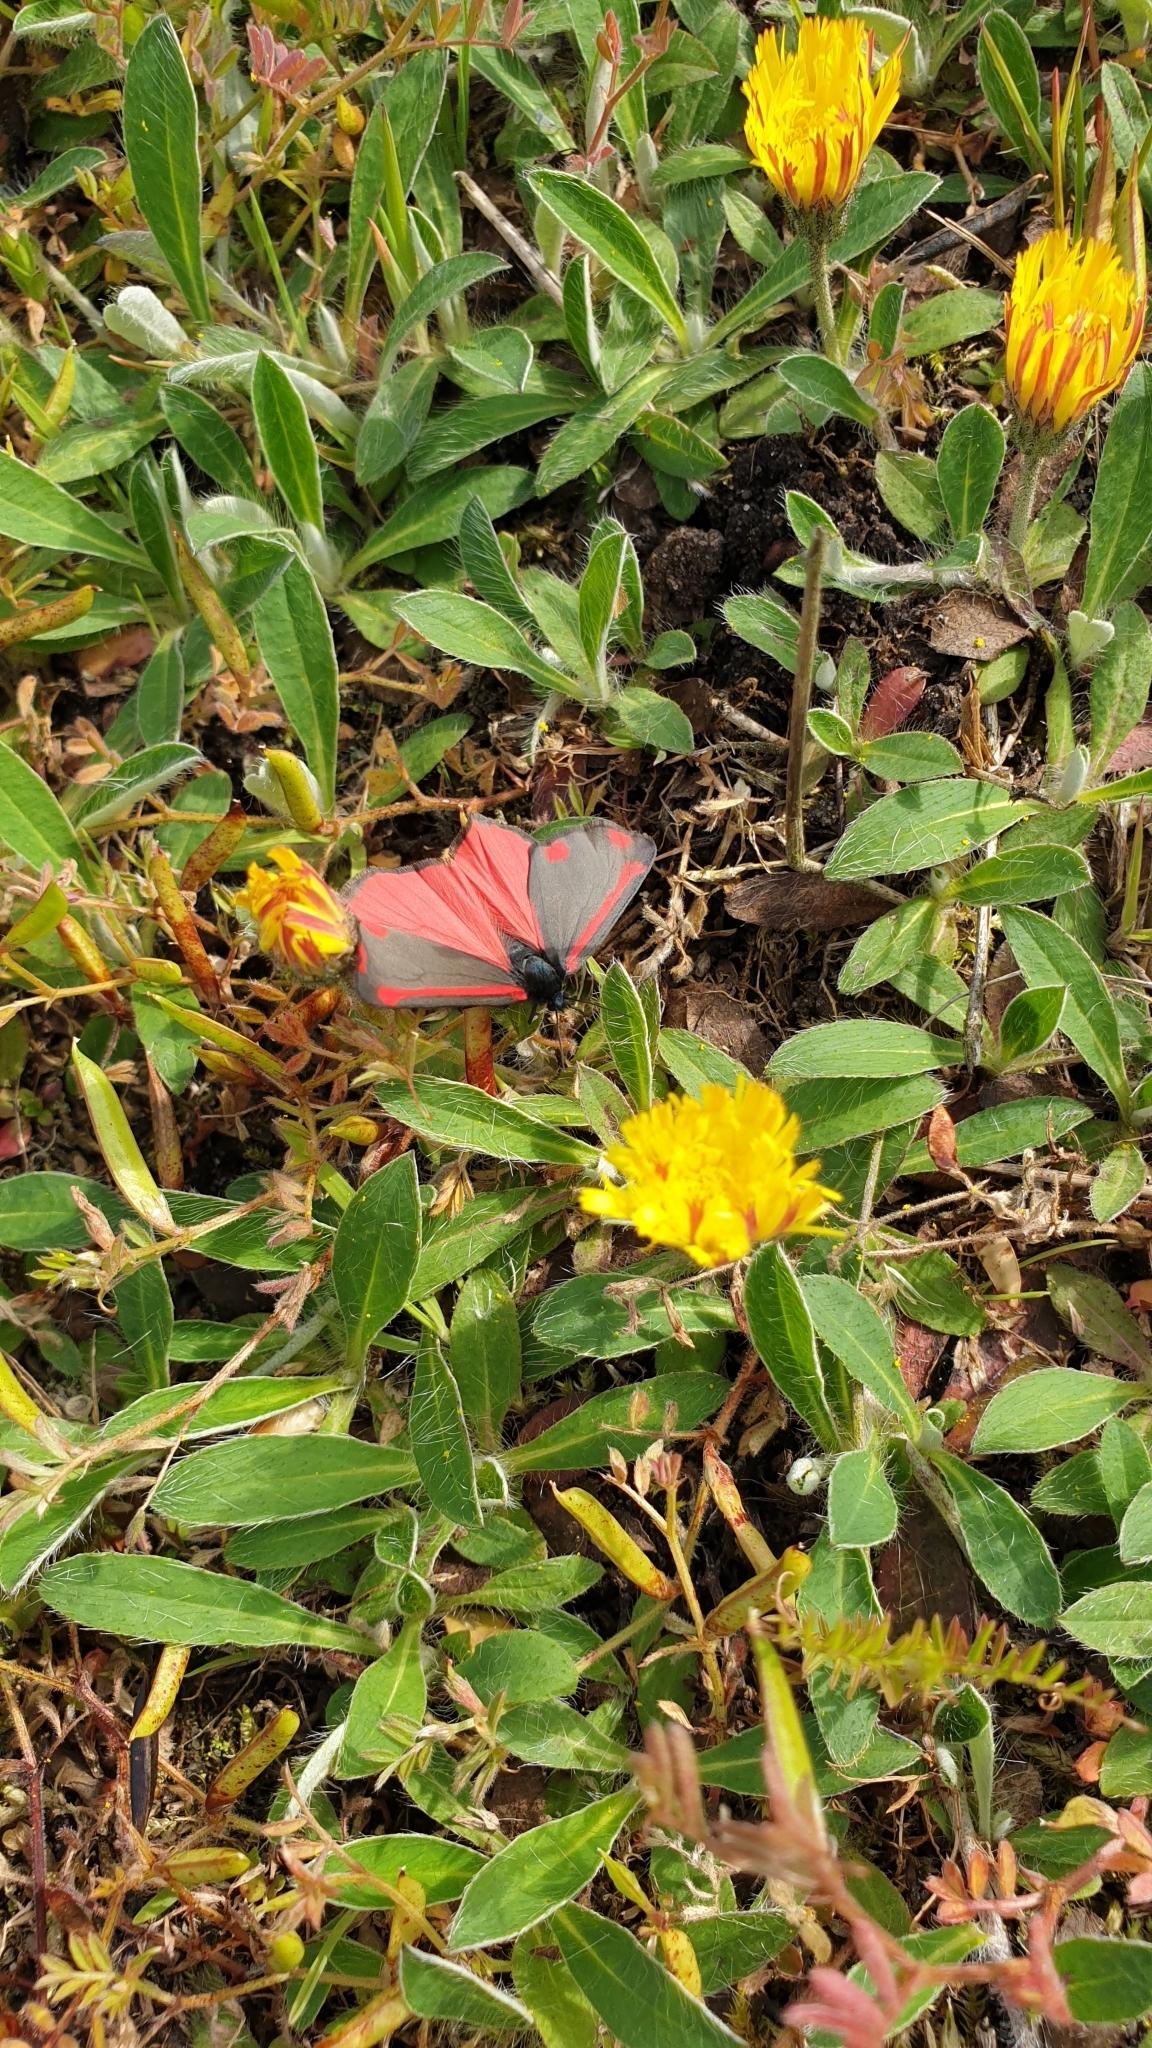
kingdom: Animalia
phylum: Arthropoda
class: Insecta
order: Lepidoptera
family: Erebidae
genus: Tyria
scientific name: Tyria jacobaeae
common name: Cinnabar
